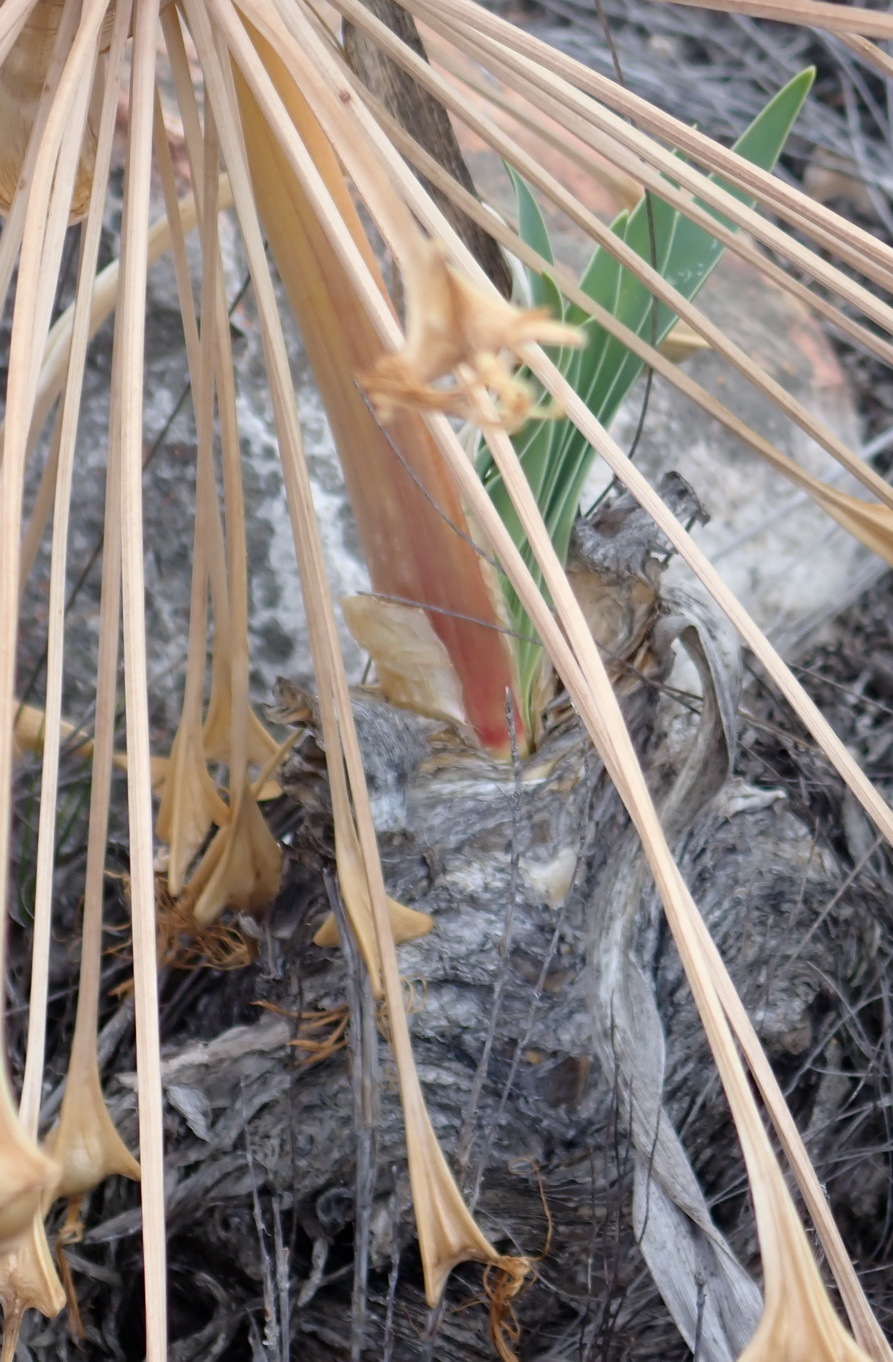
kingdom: Plantae
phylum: Tracheophyta
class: Liliopsida
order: Asparagales
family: Amaryllidaceae
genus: Boophone
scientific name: Boophone disticha
